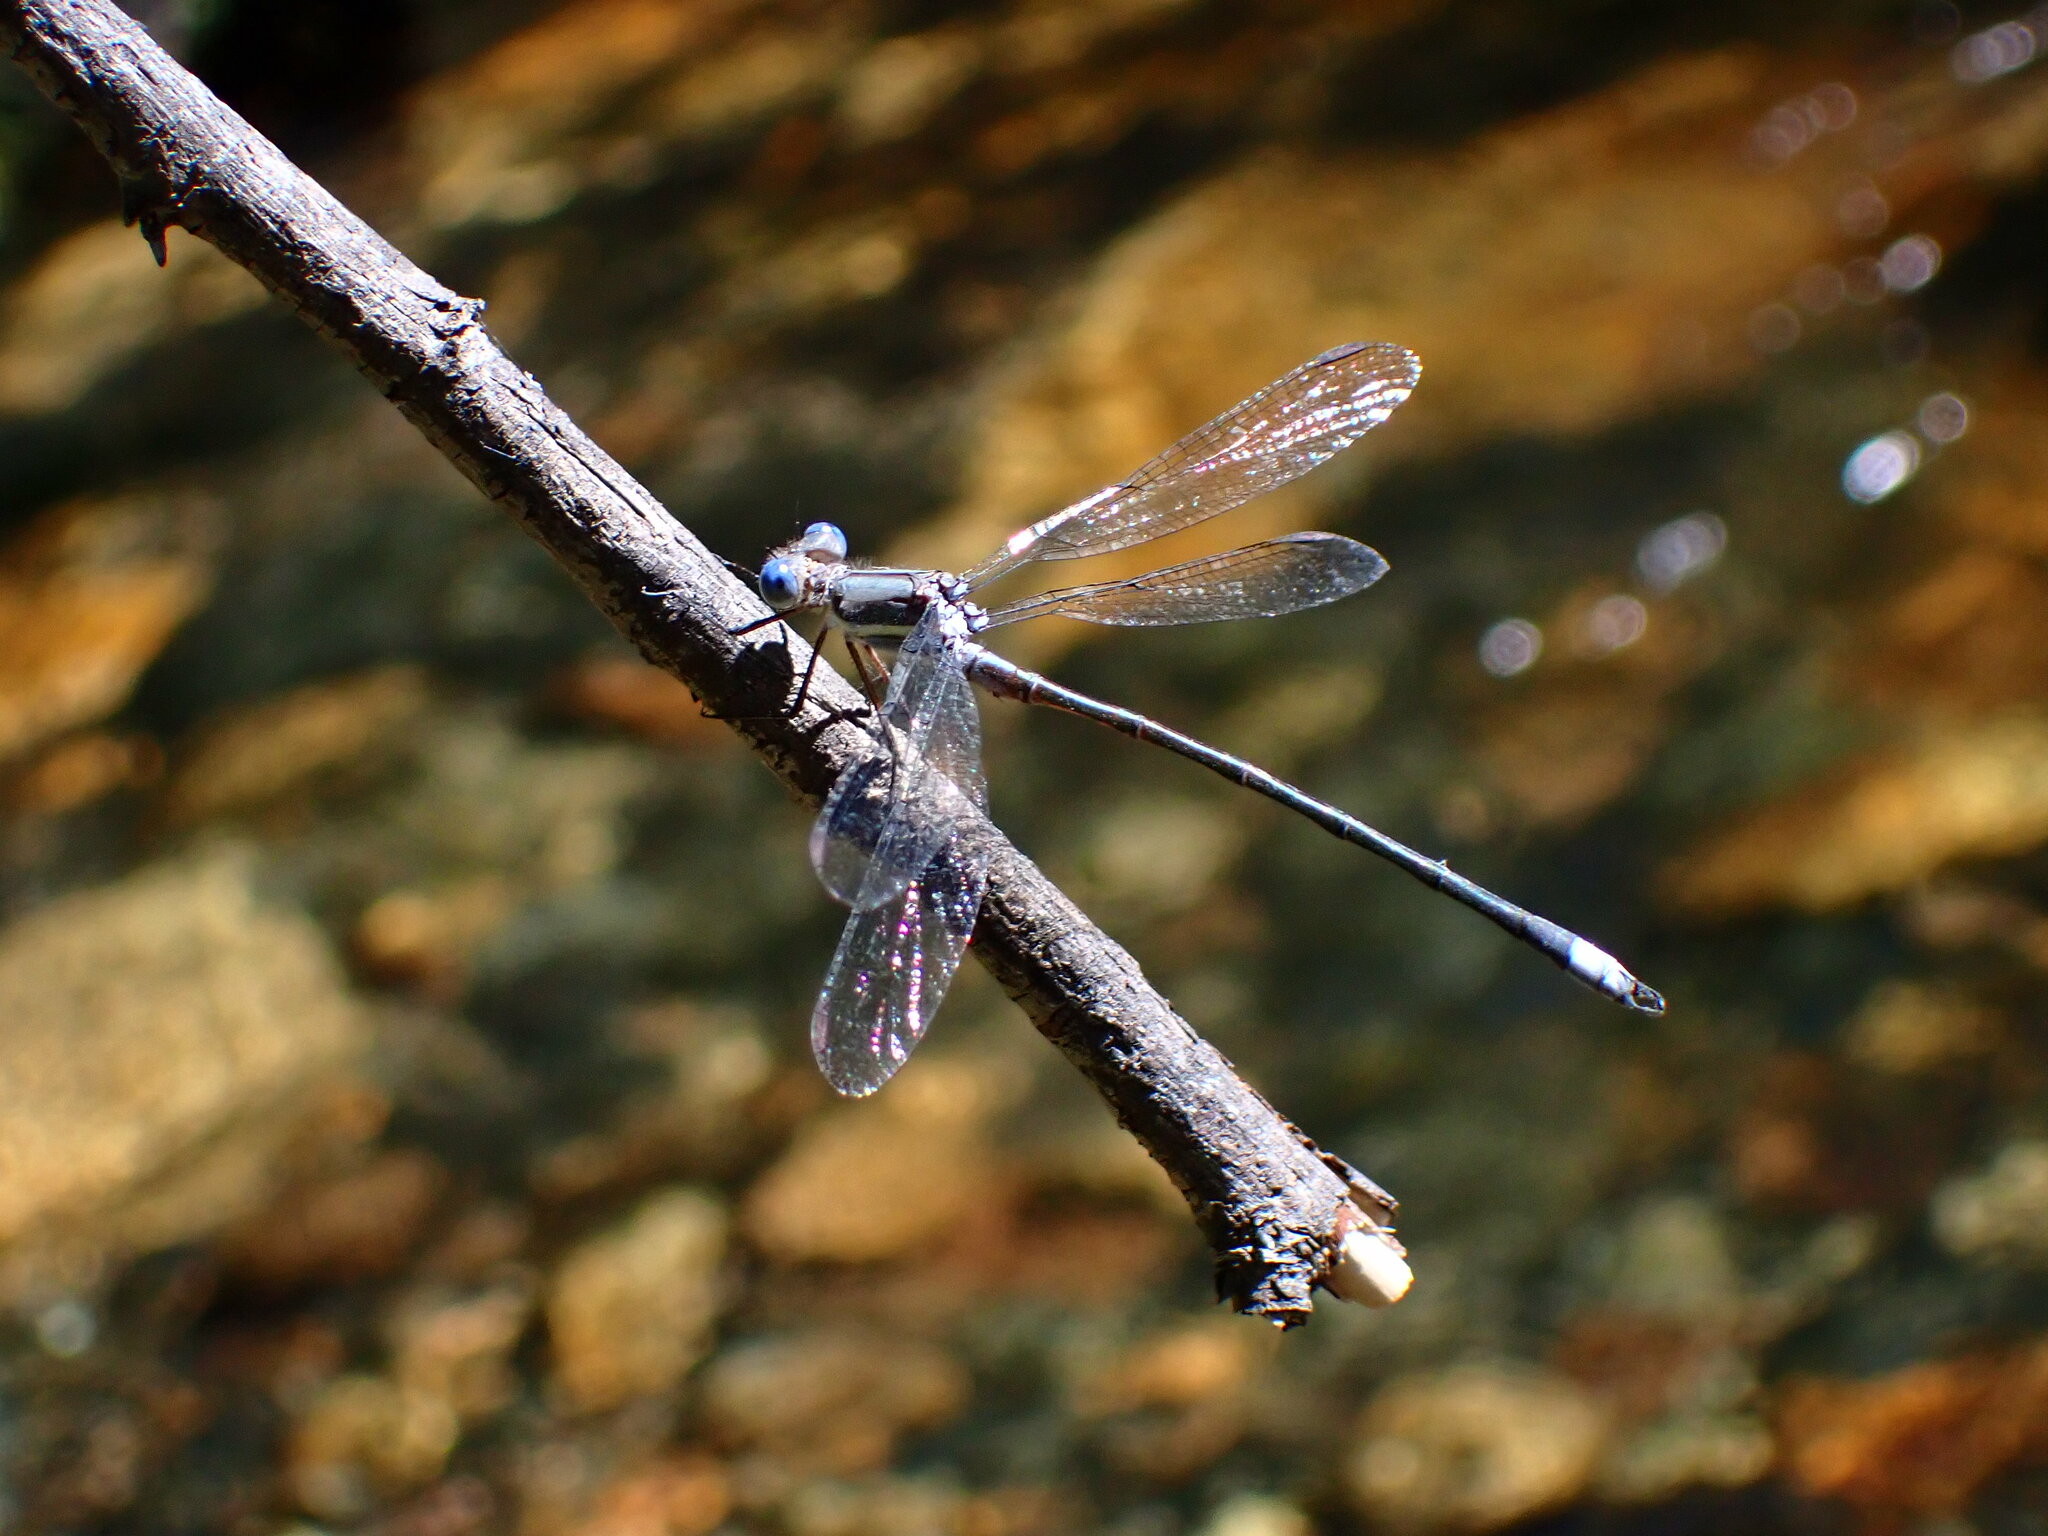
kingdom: Animalia
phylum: Arthropoda
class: Insecta
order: Odonata
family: Lestidae
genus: Archilestes
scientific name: Archilestes grandis
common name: Great spreadwing
